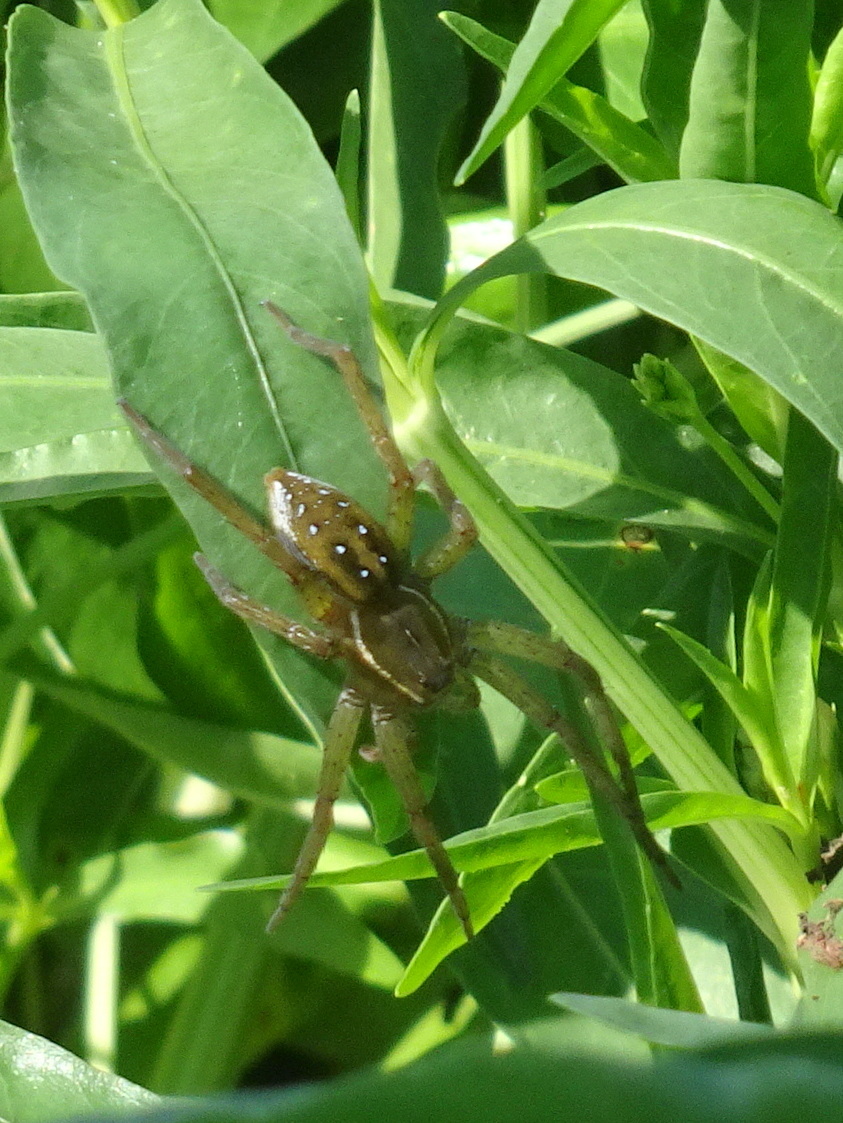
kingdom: Animalia
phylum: Arthropoda
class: Arachnida
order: Araneae
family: Pisauridae
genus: Dolomedes
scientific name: Dolomedes triton
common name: Six-spotted fishing spider
